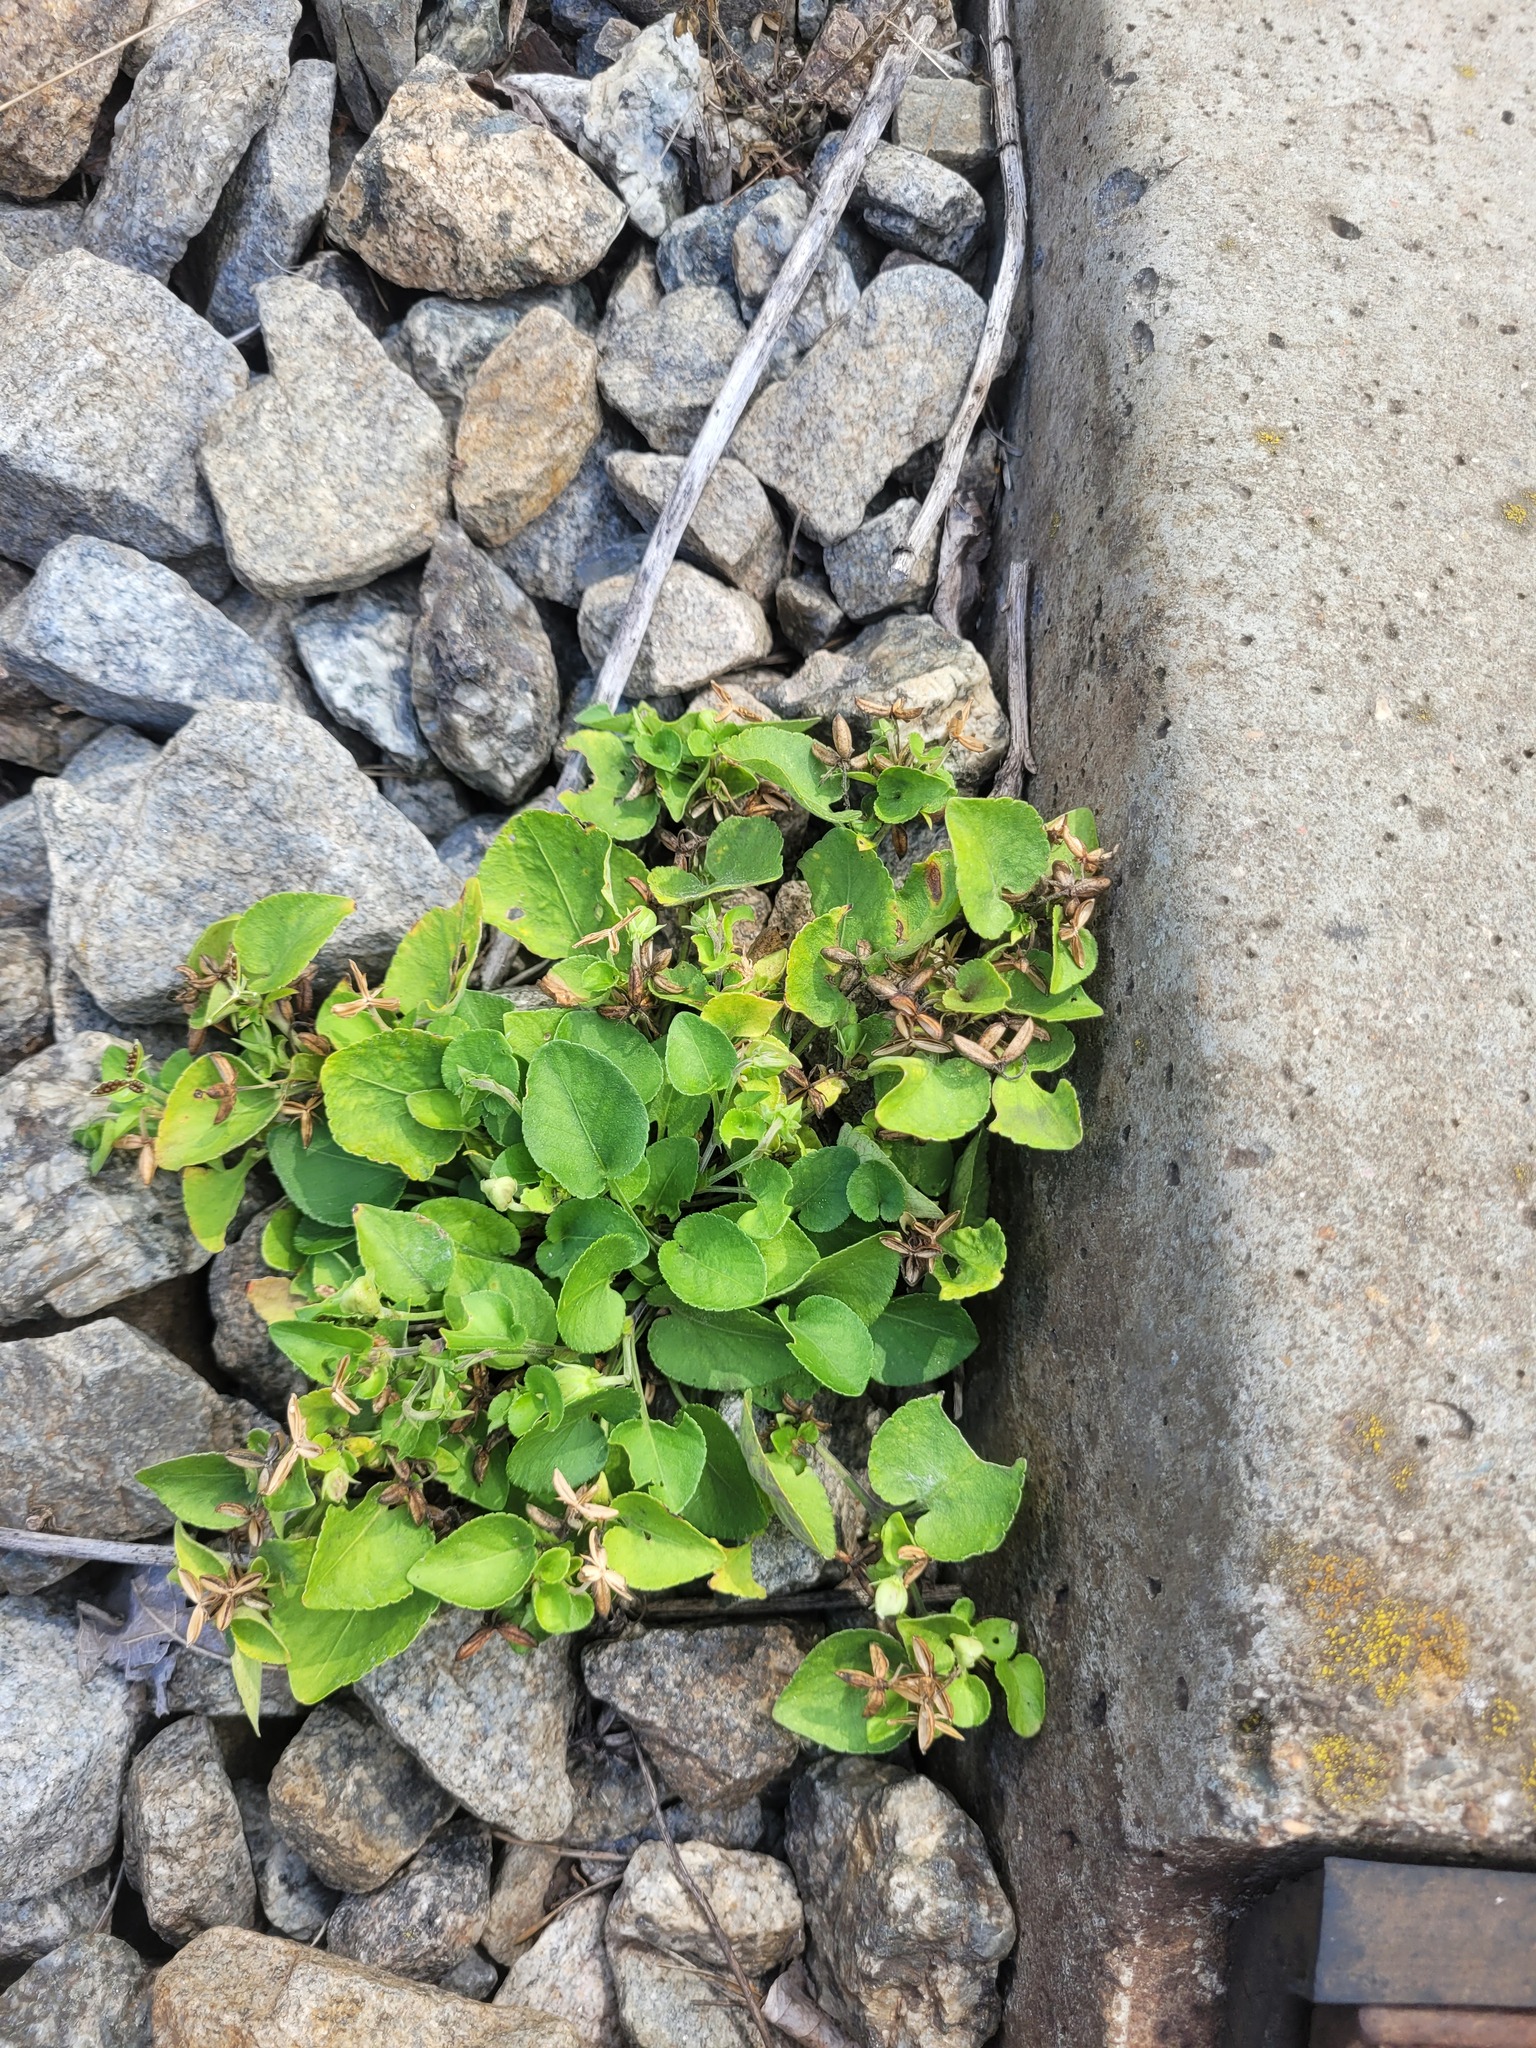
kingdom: Plantae
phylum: Tracheophyta
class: Magnoliopsida
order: Malpighiales
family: Violaceae
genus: Viola
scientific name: Viola rupestris
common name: Teesdale violet
